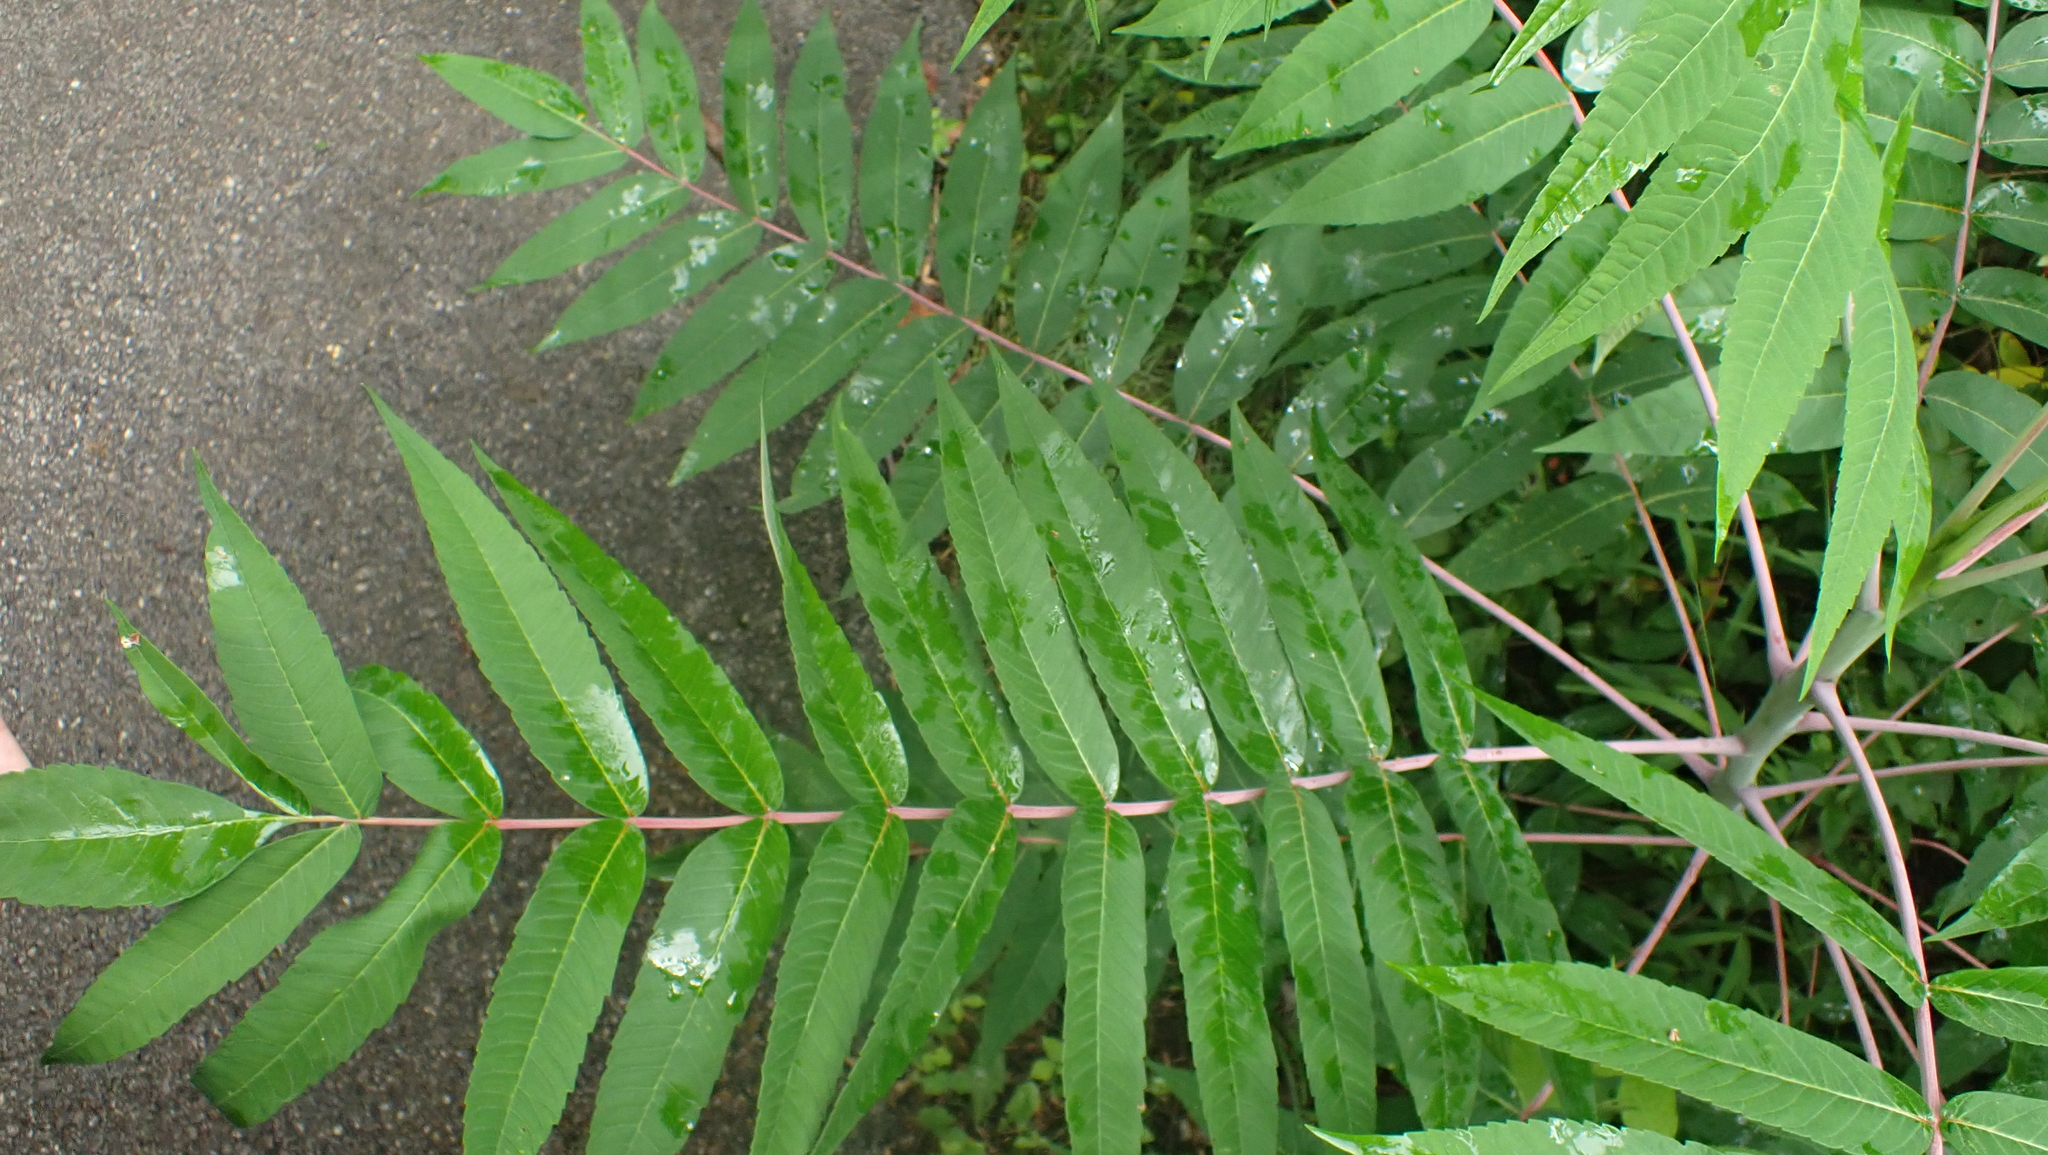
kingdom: Plantae
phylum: Tracheophyta
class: Magnoliopsida
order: Sapindales
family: Anacardiaceae
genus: Rhus
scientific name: Rhus glabra
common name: Scarlet sumac
